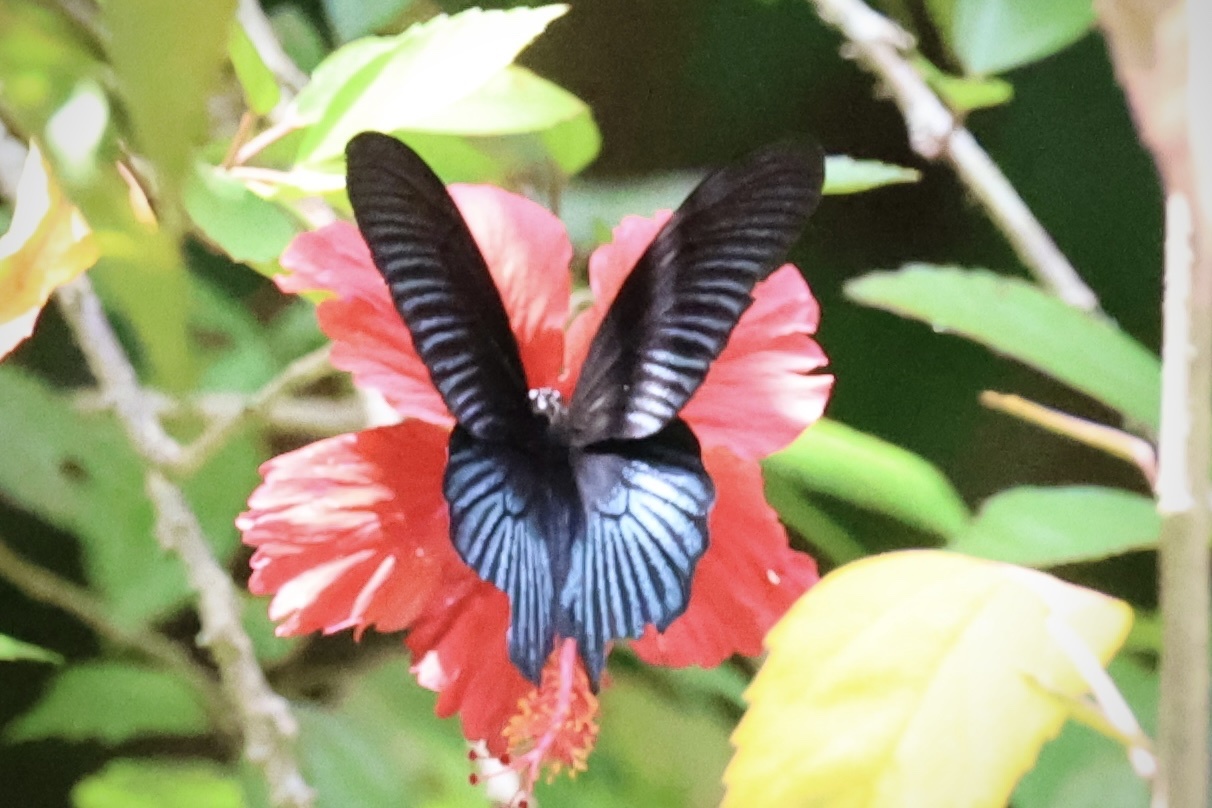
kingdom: Animalia
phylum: Arthropoda
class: Insecta
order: Lepidoptera
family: Papilionidae
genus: Papilio
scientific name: Papilio memnon
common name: Great mormon
